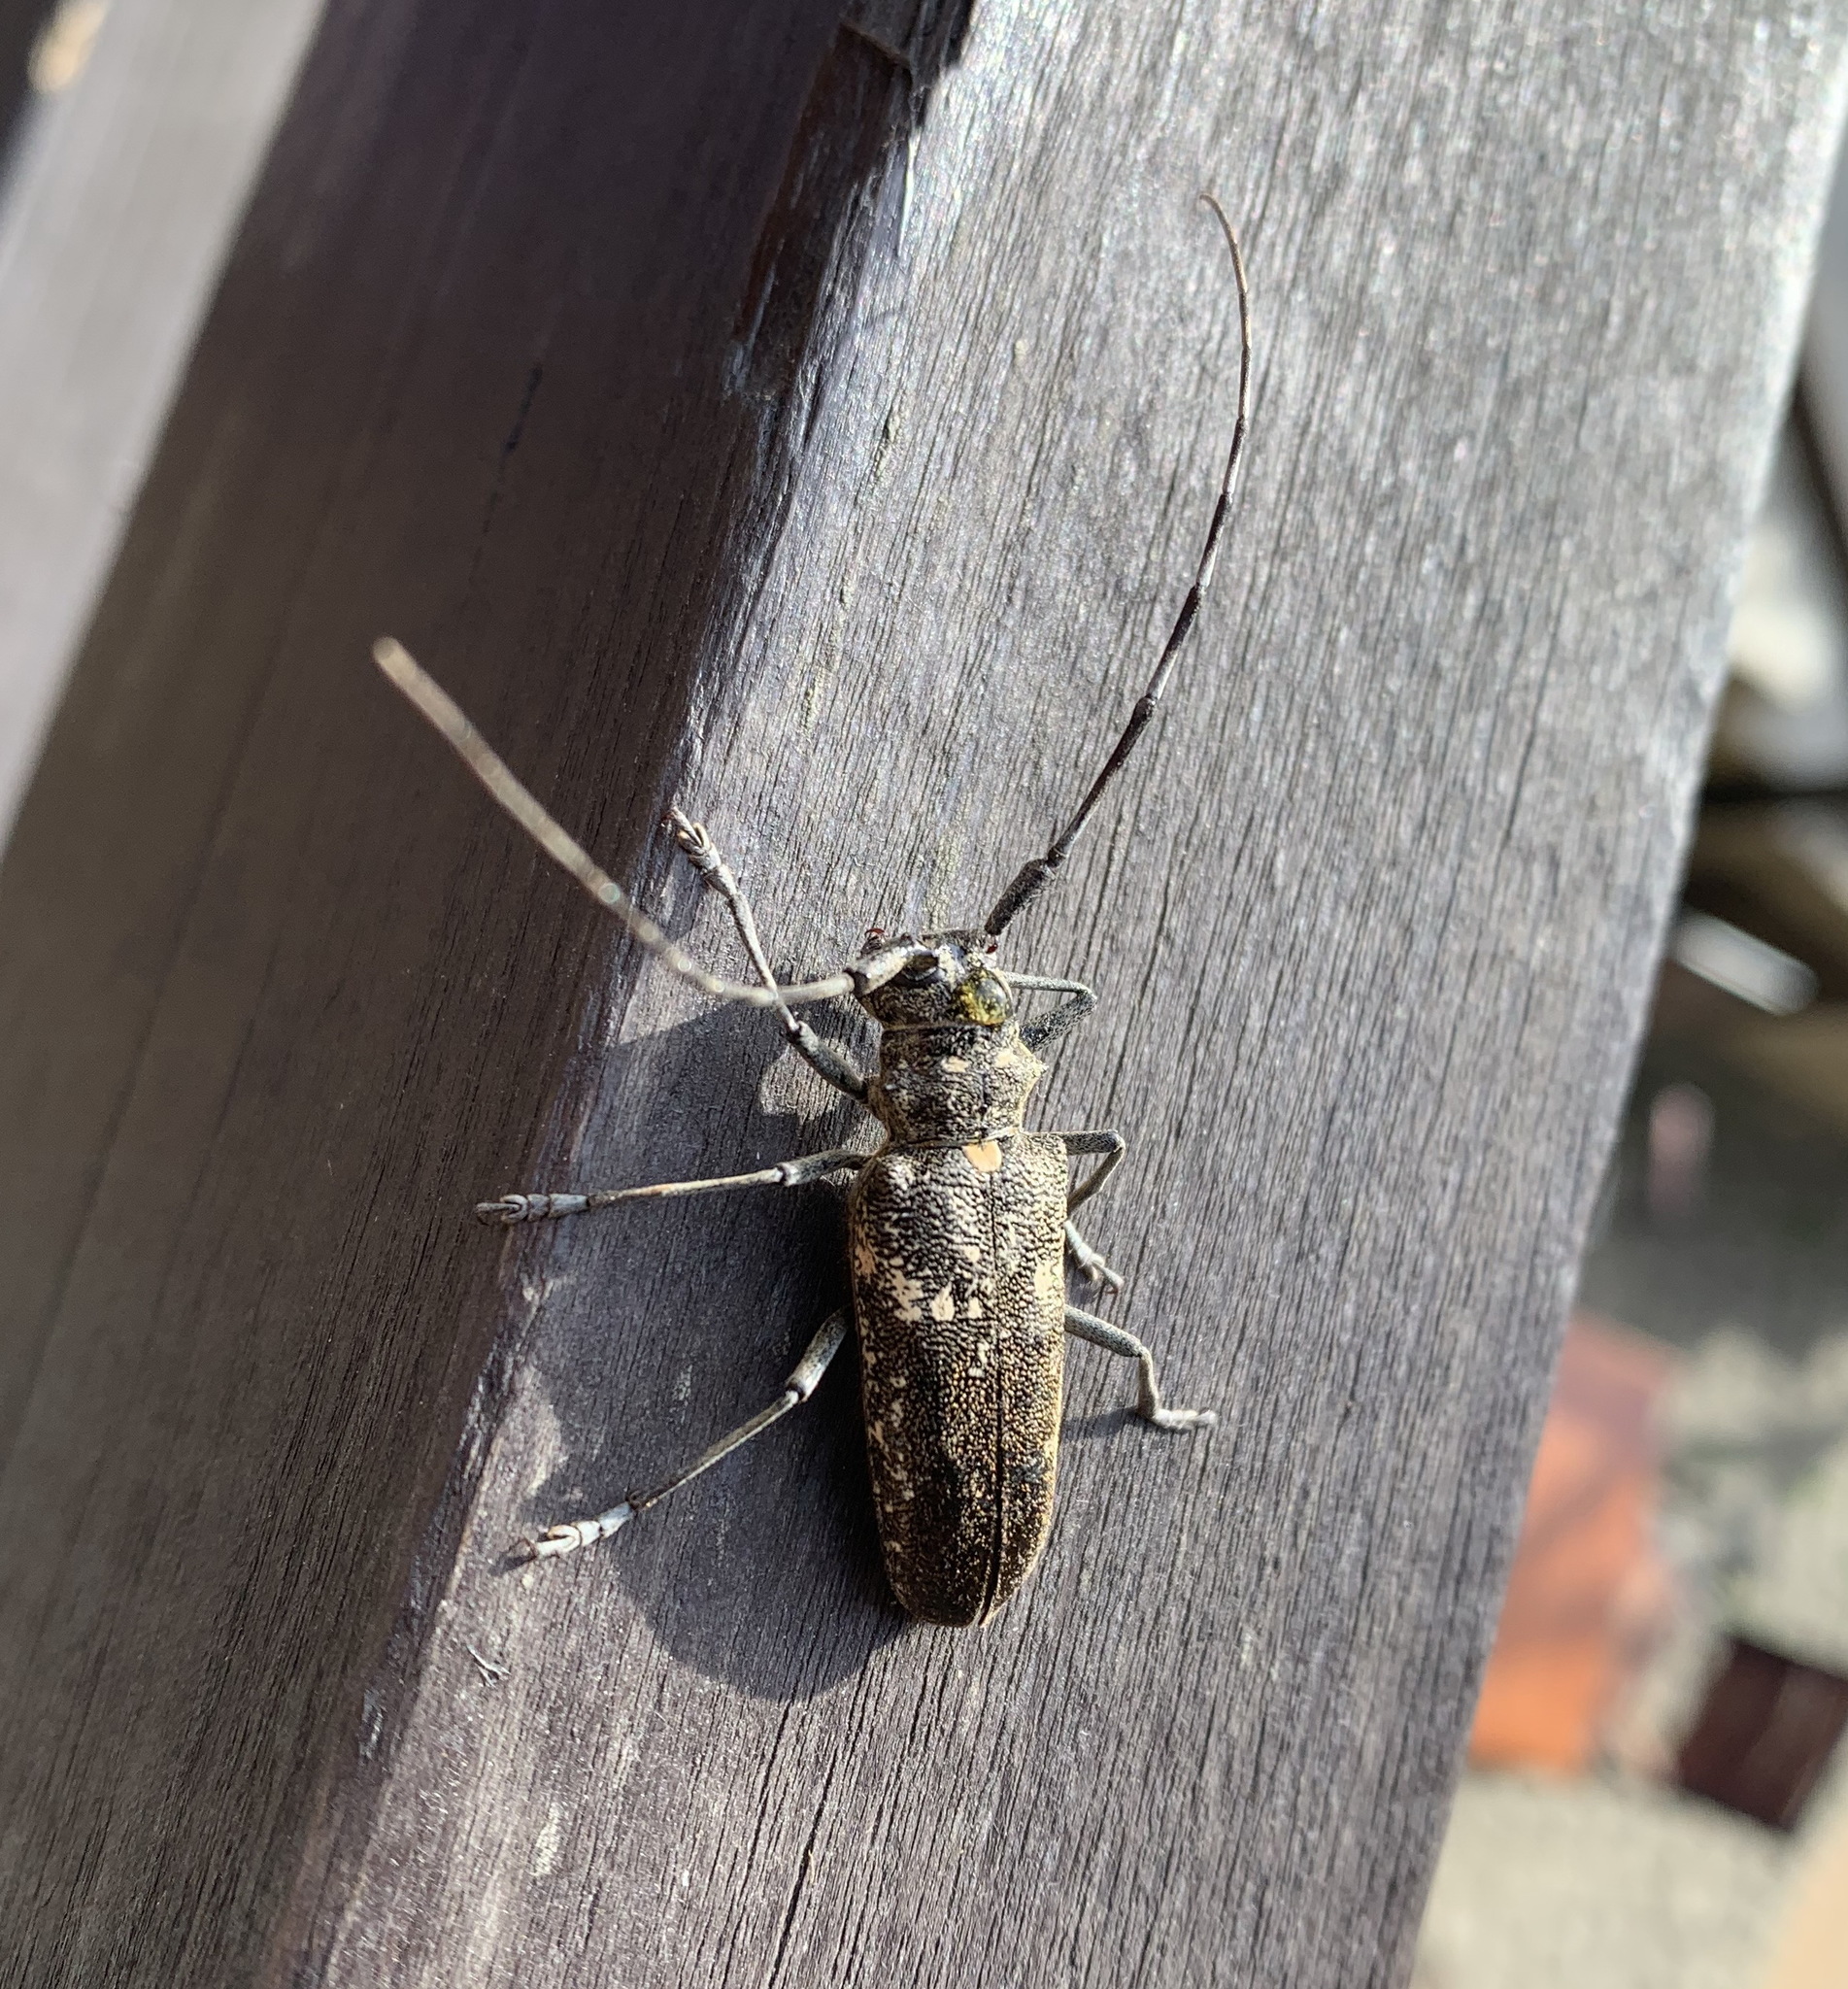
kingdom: Animalia
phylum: Arthropoda
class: Insecta
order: Coleoptera
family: Cerambycidae
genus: Monochamus
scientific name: Monochamus sartor
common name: Pine sawyer
